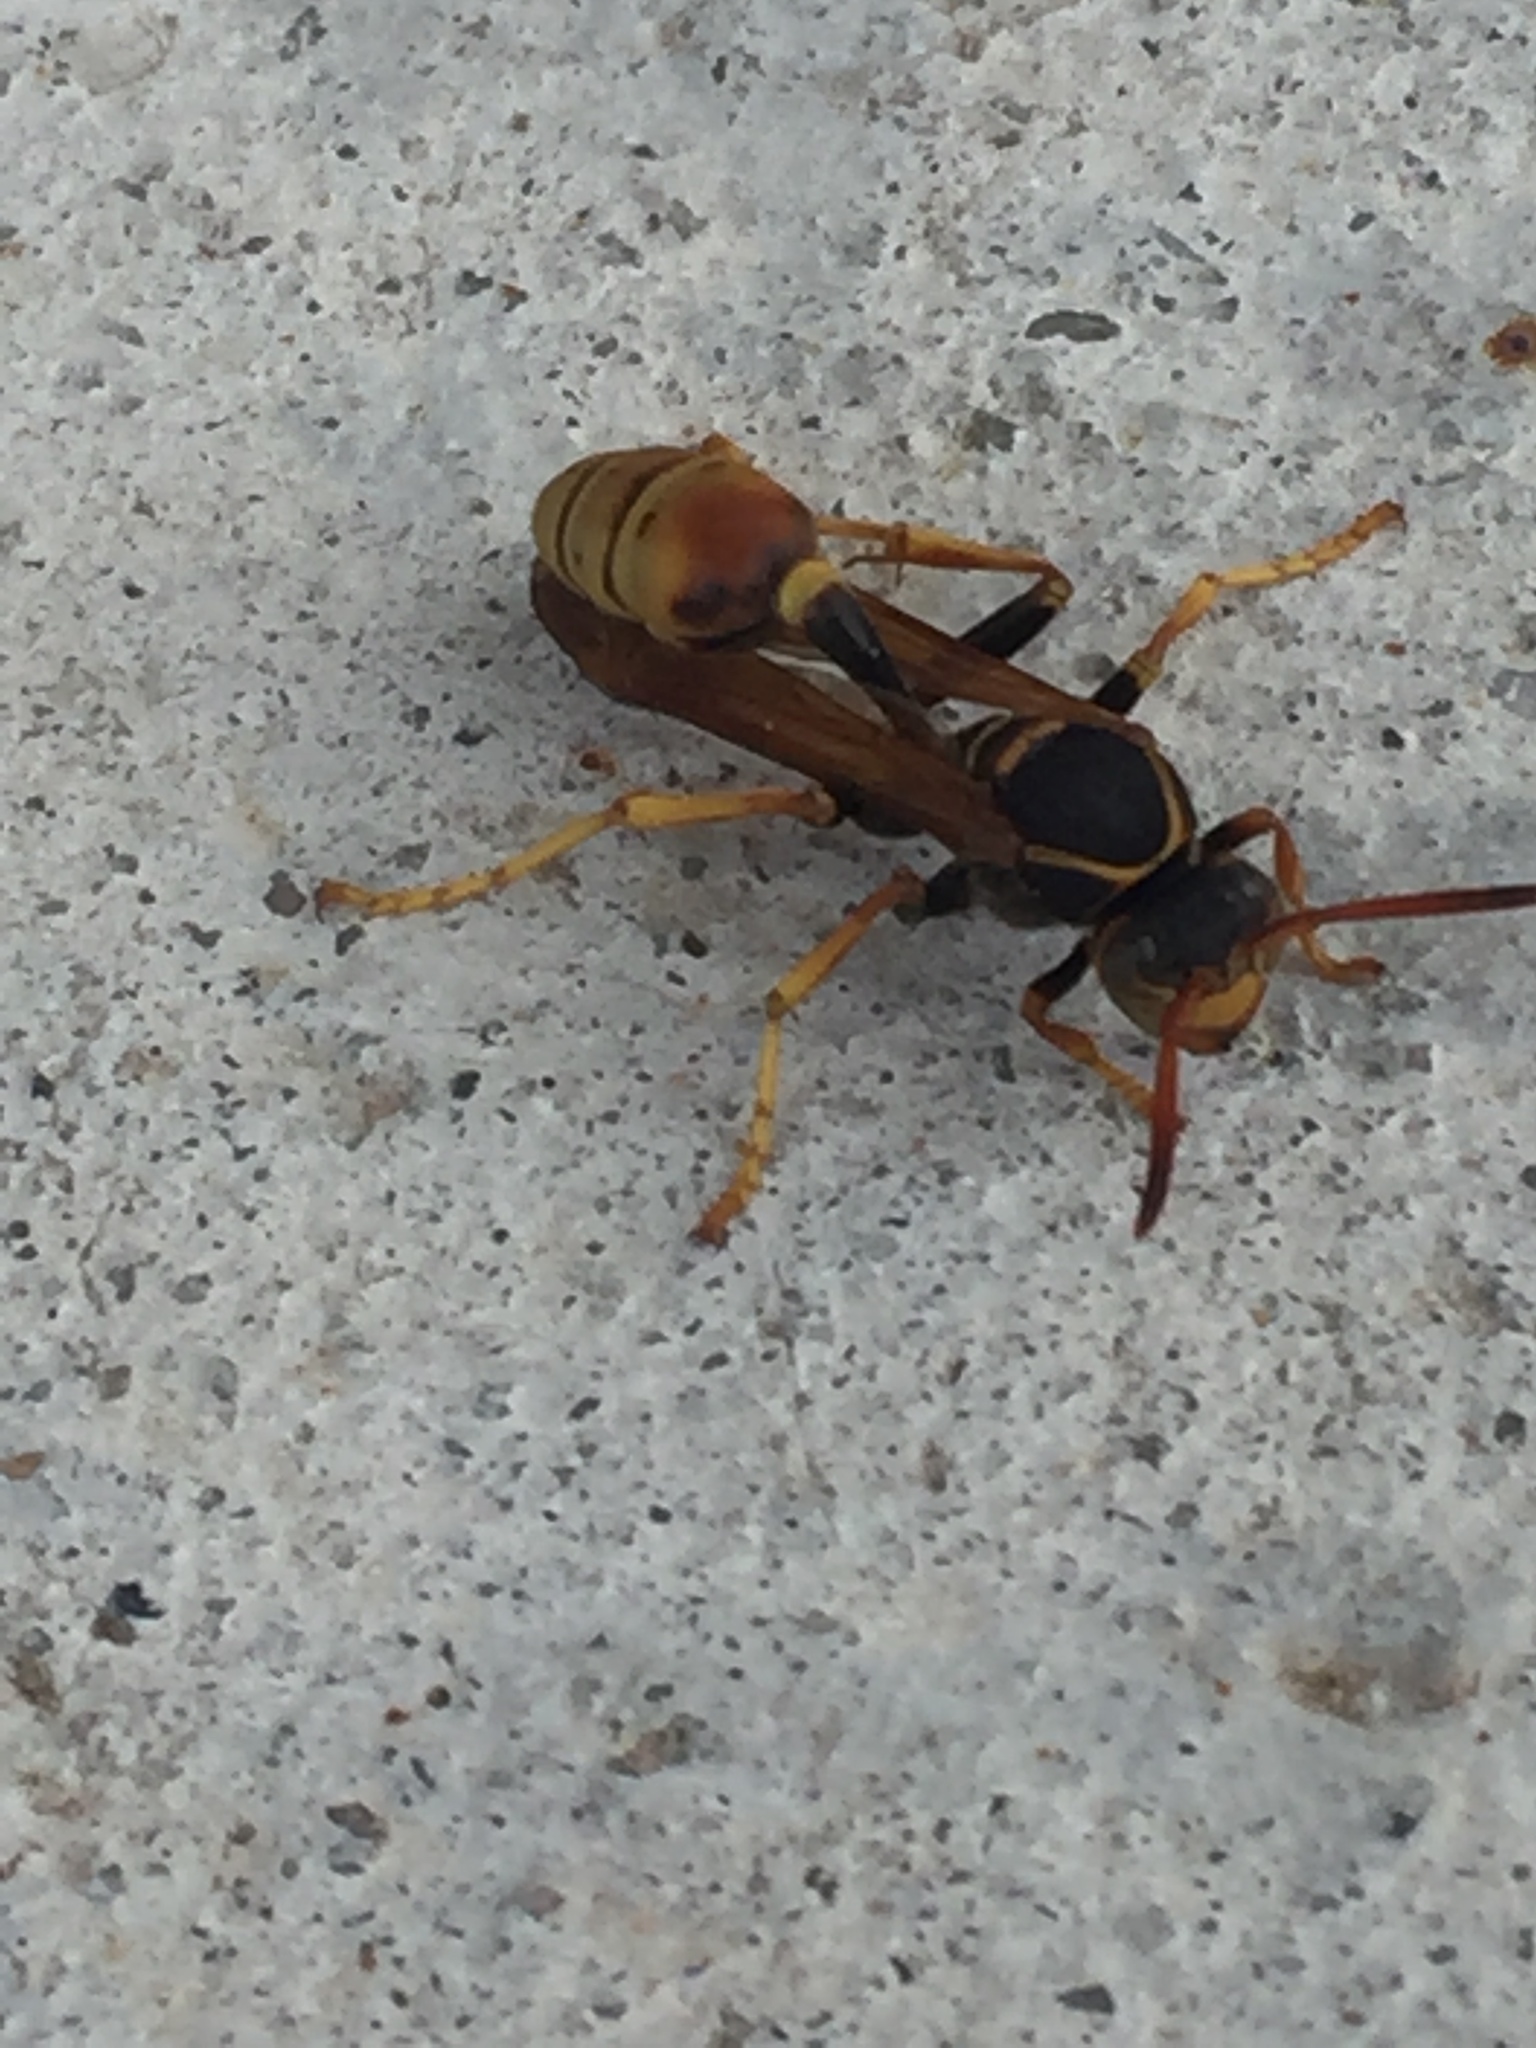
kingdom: Animalia
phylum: Arthropoda
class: Insecta
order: Hymenoptera
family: Vespidae
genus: Mischocyttarus
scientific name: Mischocyttarus flavitarsis
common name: Wasp
